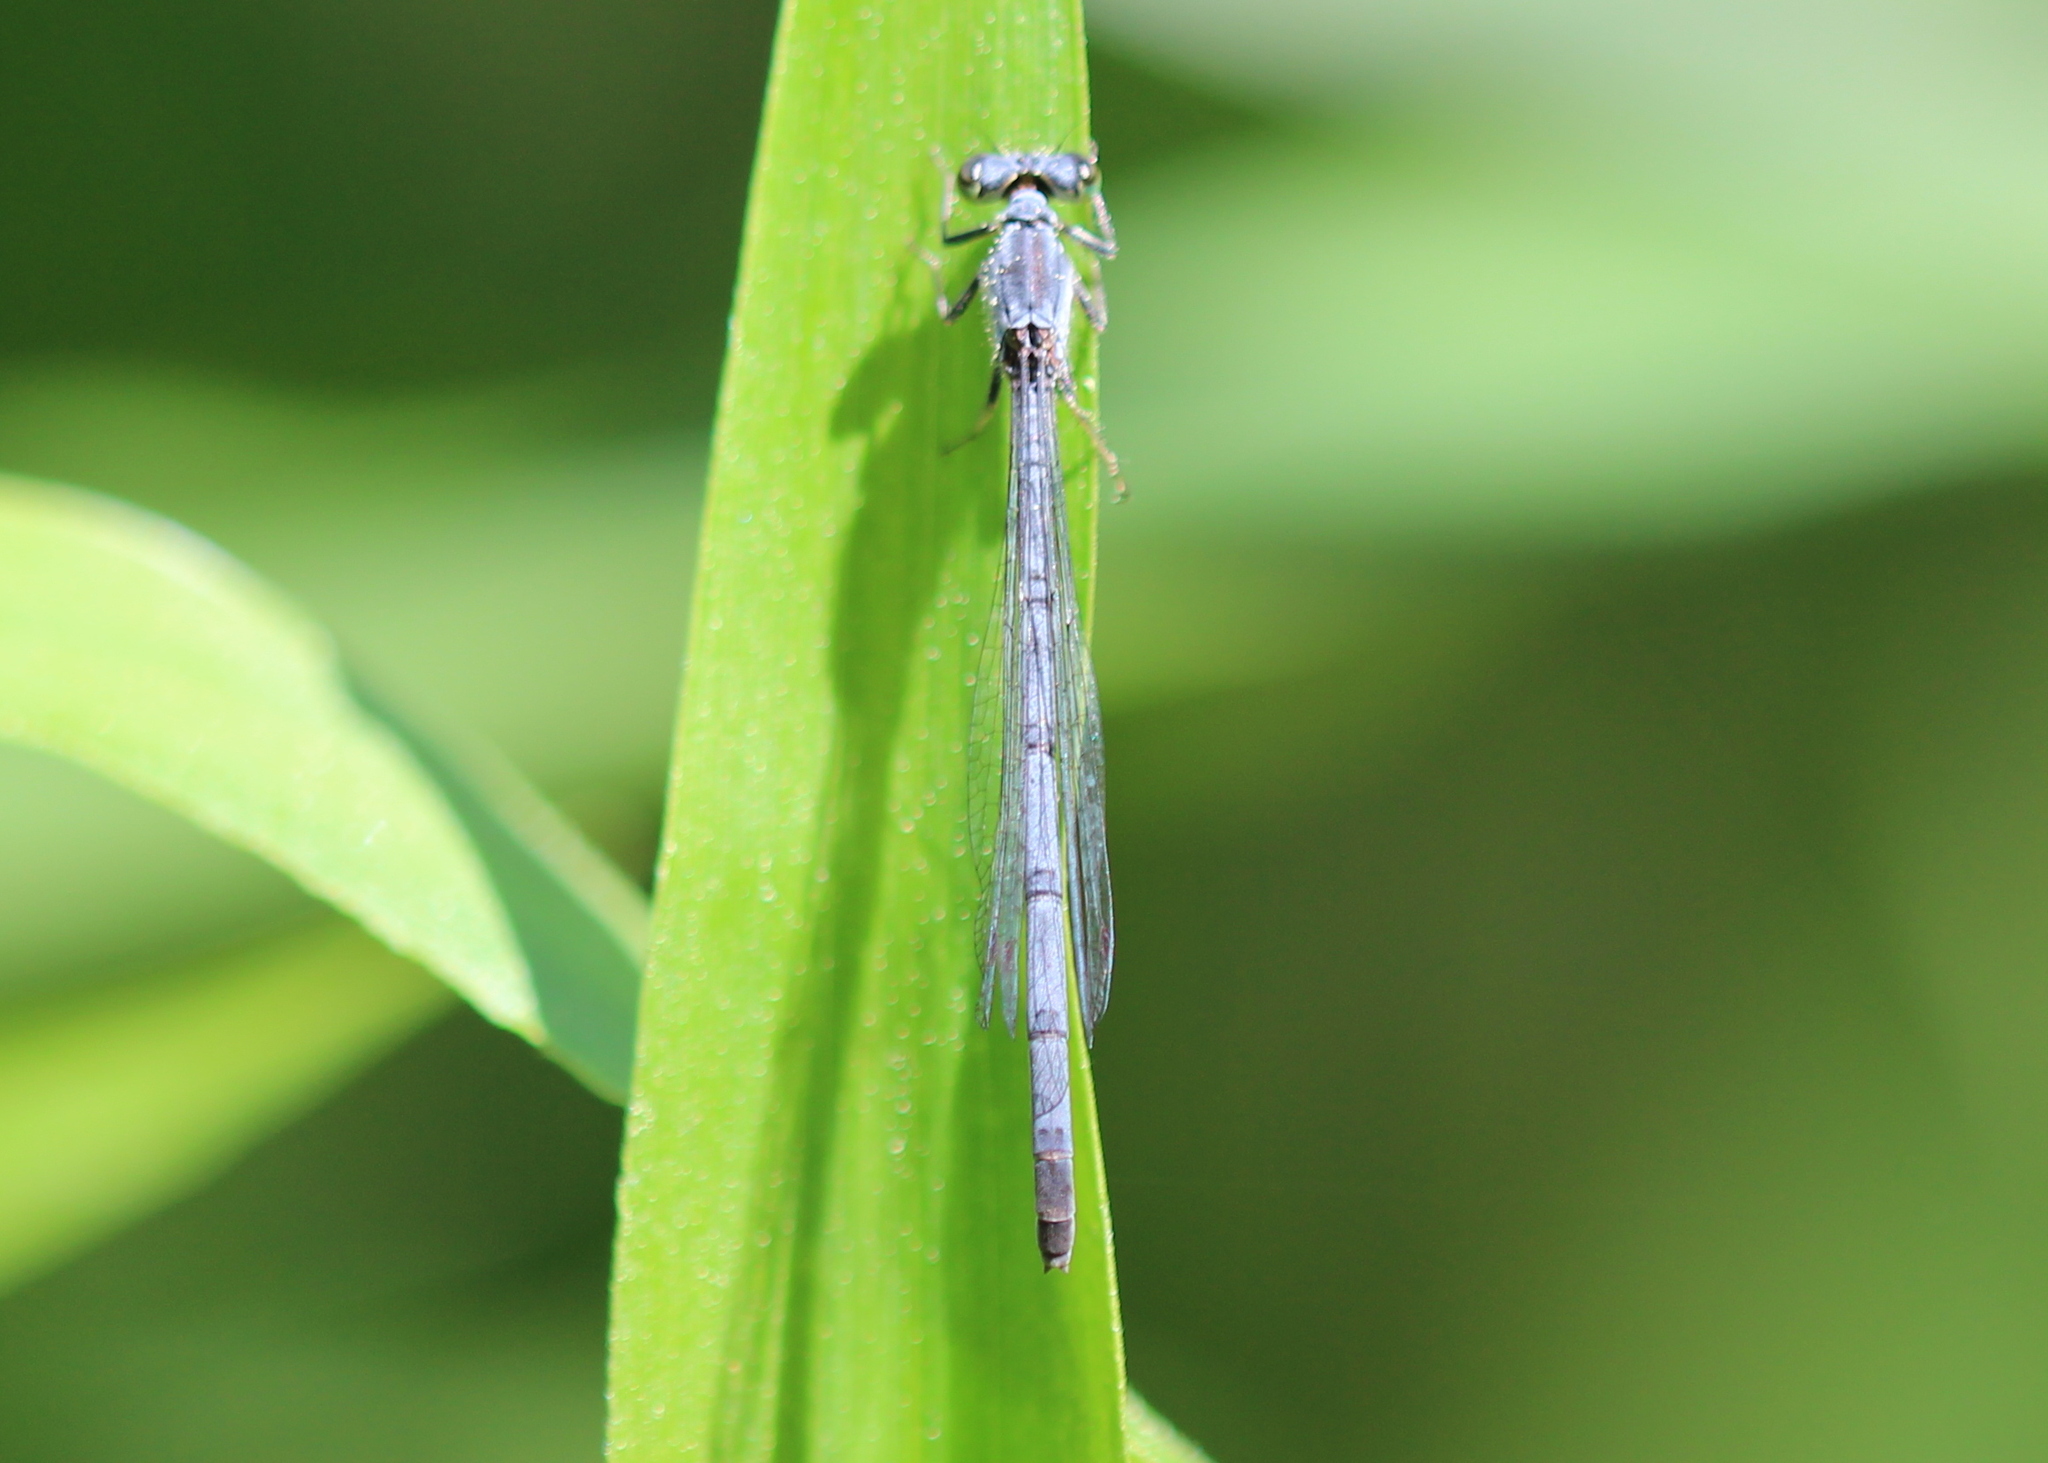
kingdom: Animalia
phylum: Arthropoda
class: Insecta
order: Odonata
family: Coenagrionidae
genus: Ischnura
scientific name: Ischnura posita
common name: Fragile forktail
